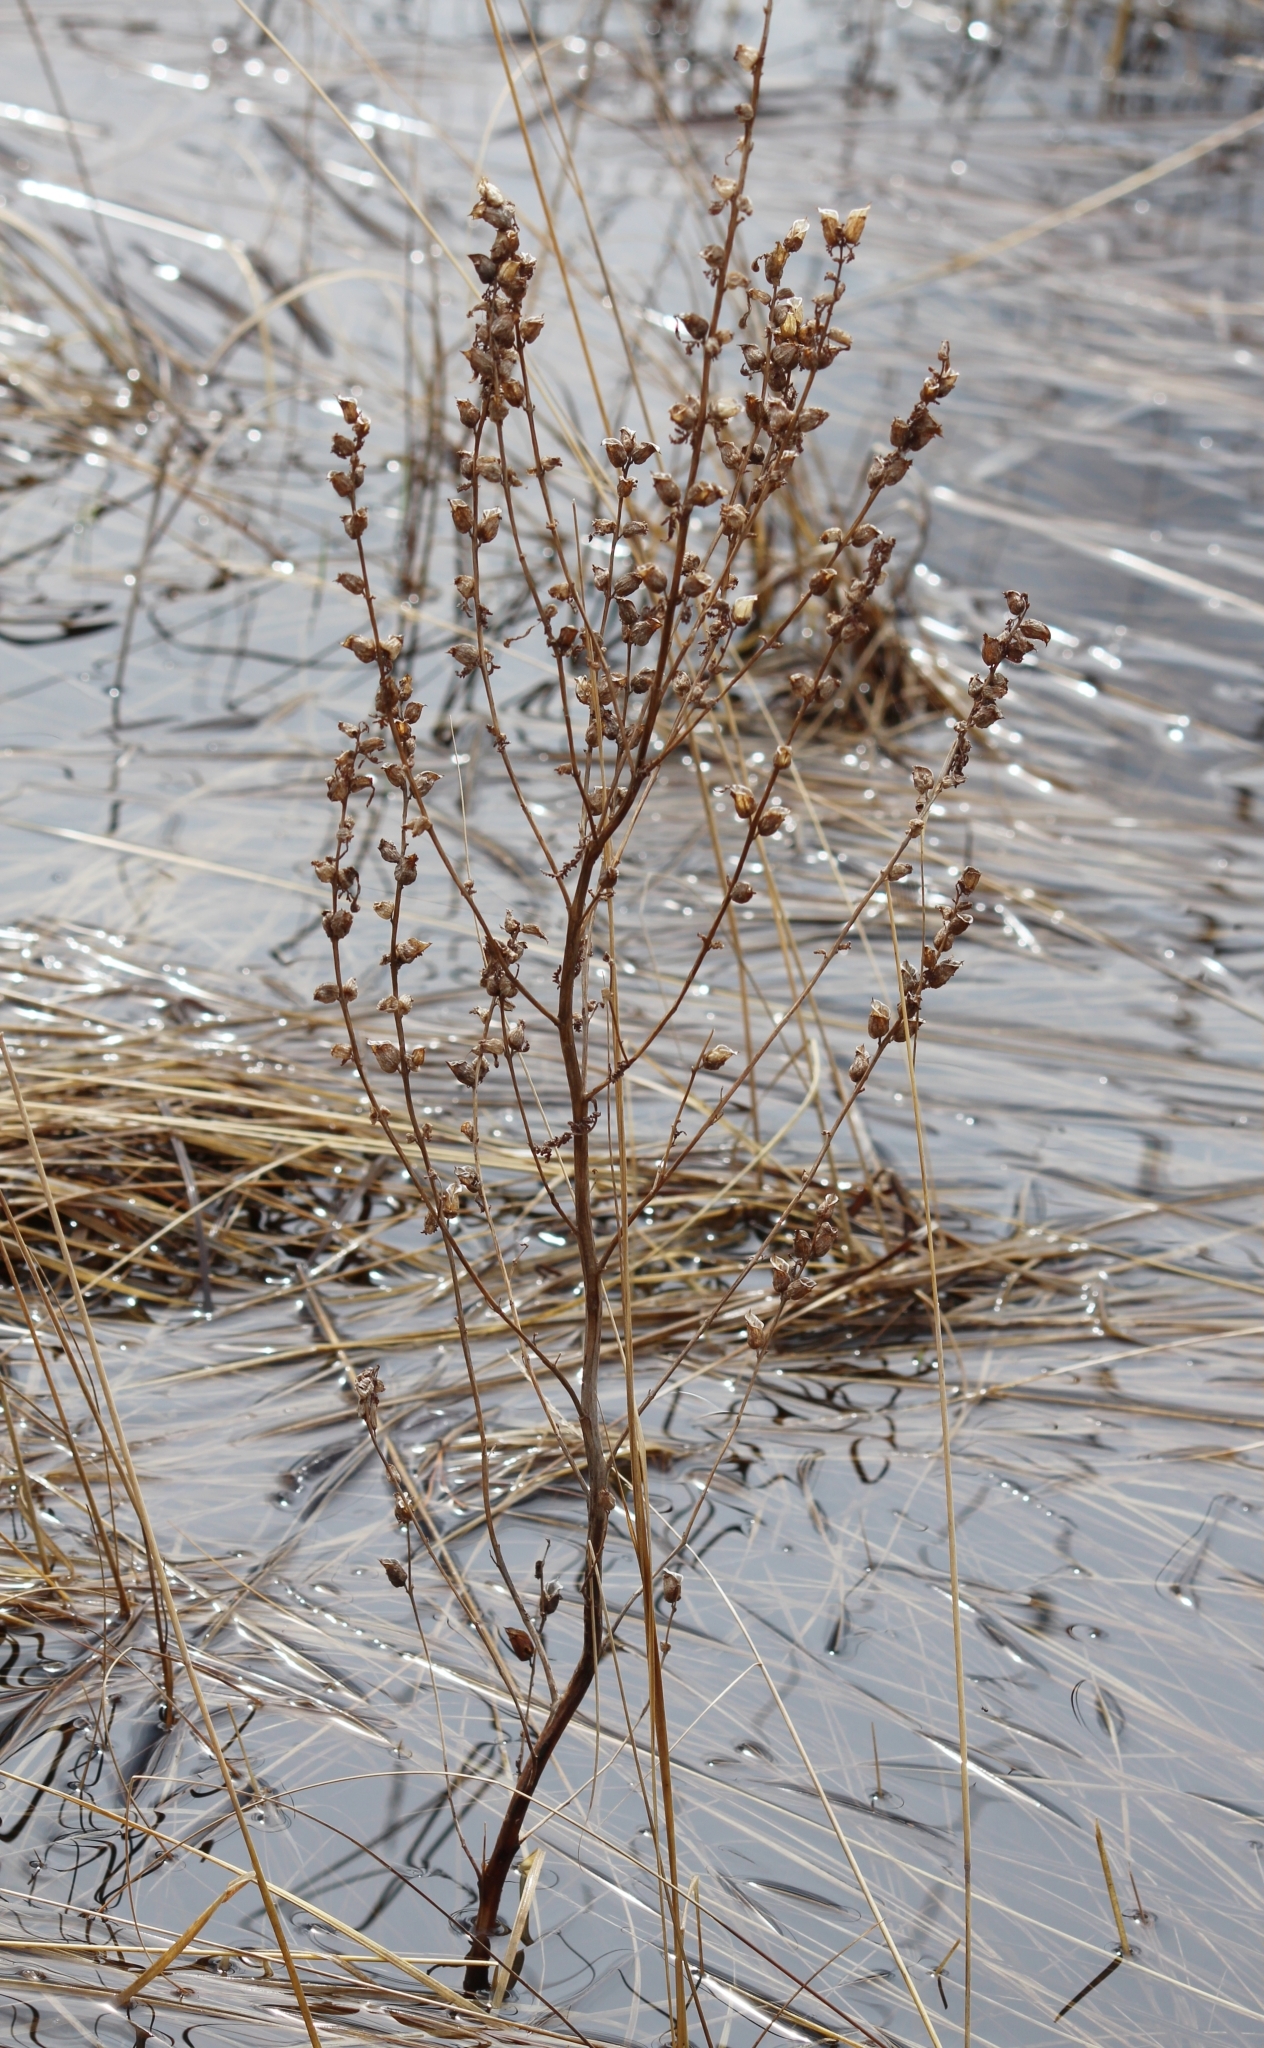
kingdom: Plantae
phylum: Tracheophyta
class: Magnoliopsida
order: Lamiales
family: Orobanchaceae
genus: Pedicularis
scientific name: Pedicularis karoi
